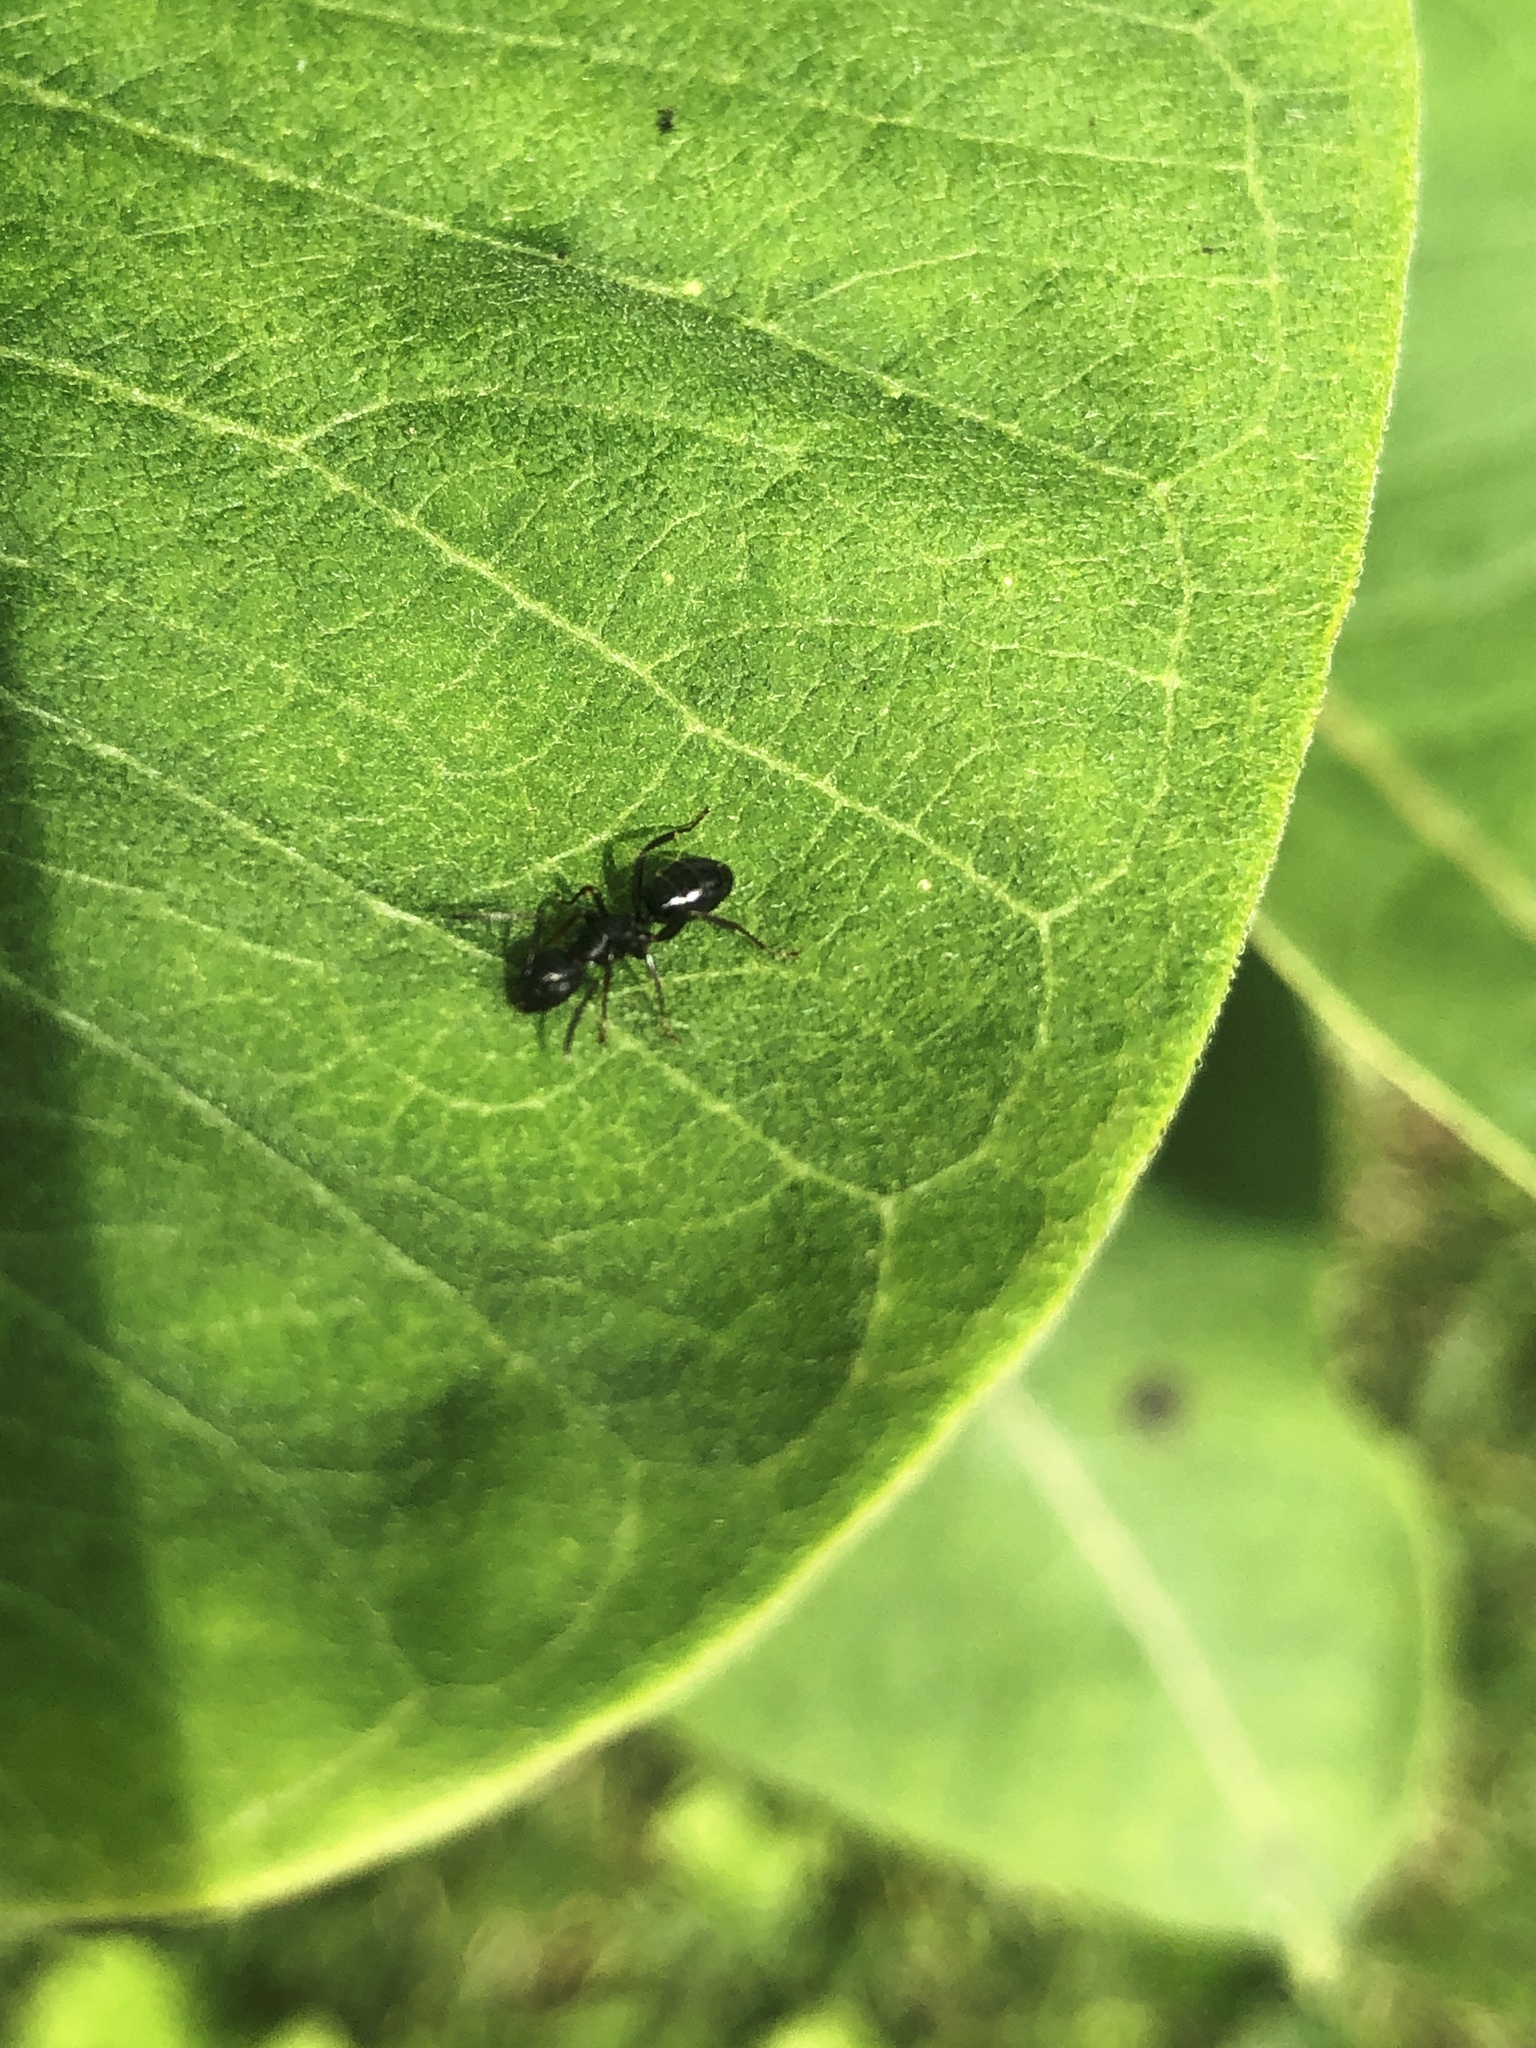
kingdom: Animalia
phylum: Arthropoda
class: Insecta
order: Hymenoptera
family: Formicidae
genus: Myrmentoma
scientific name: Myrmentoma
